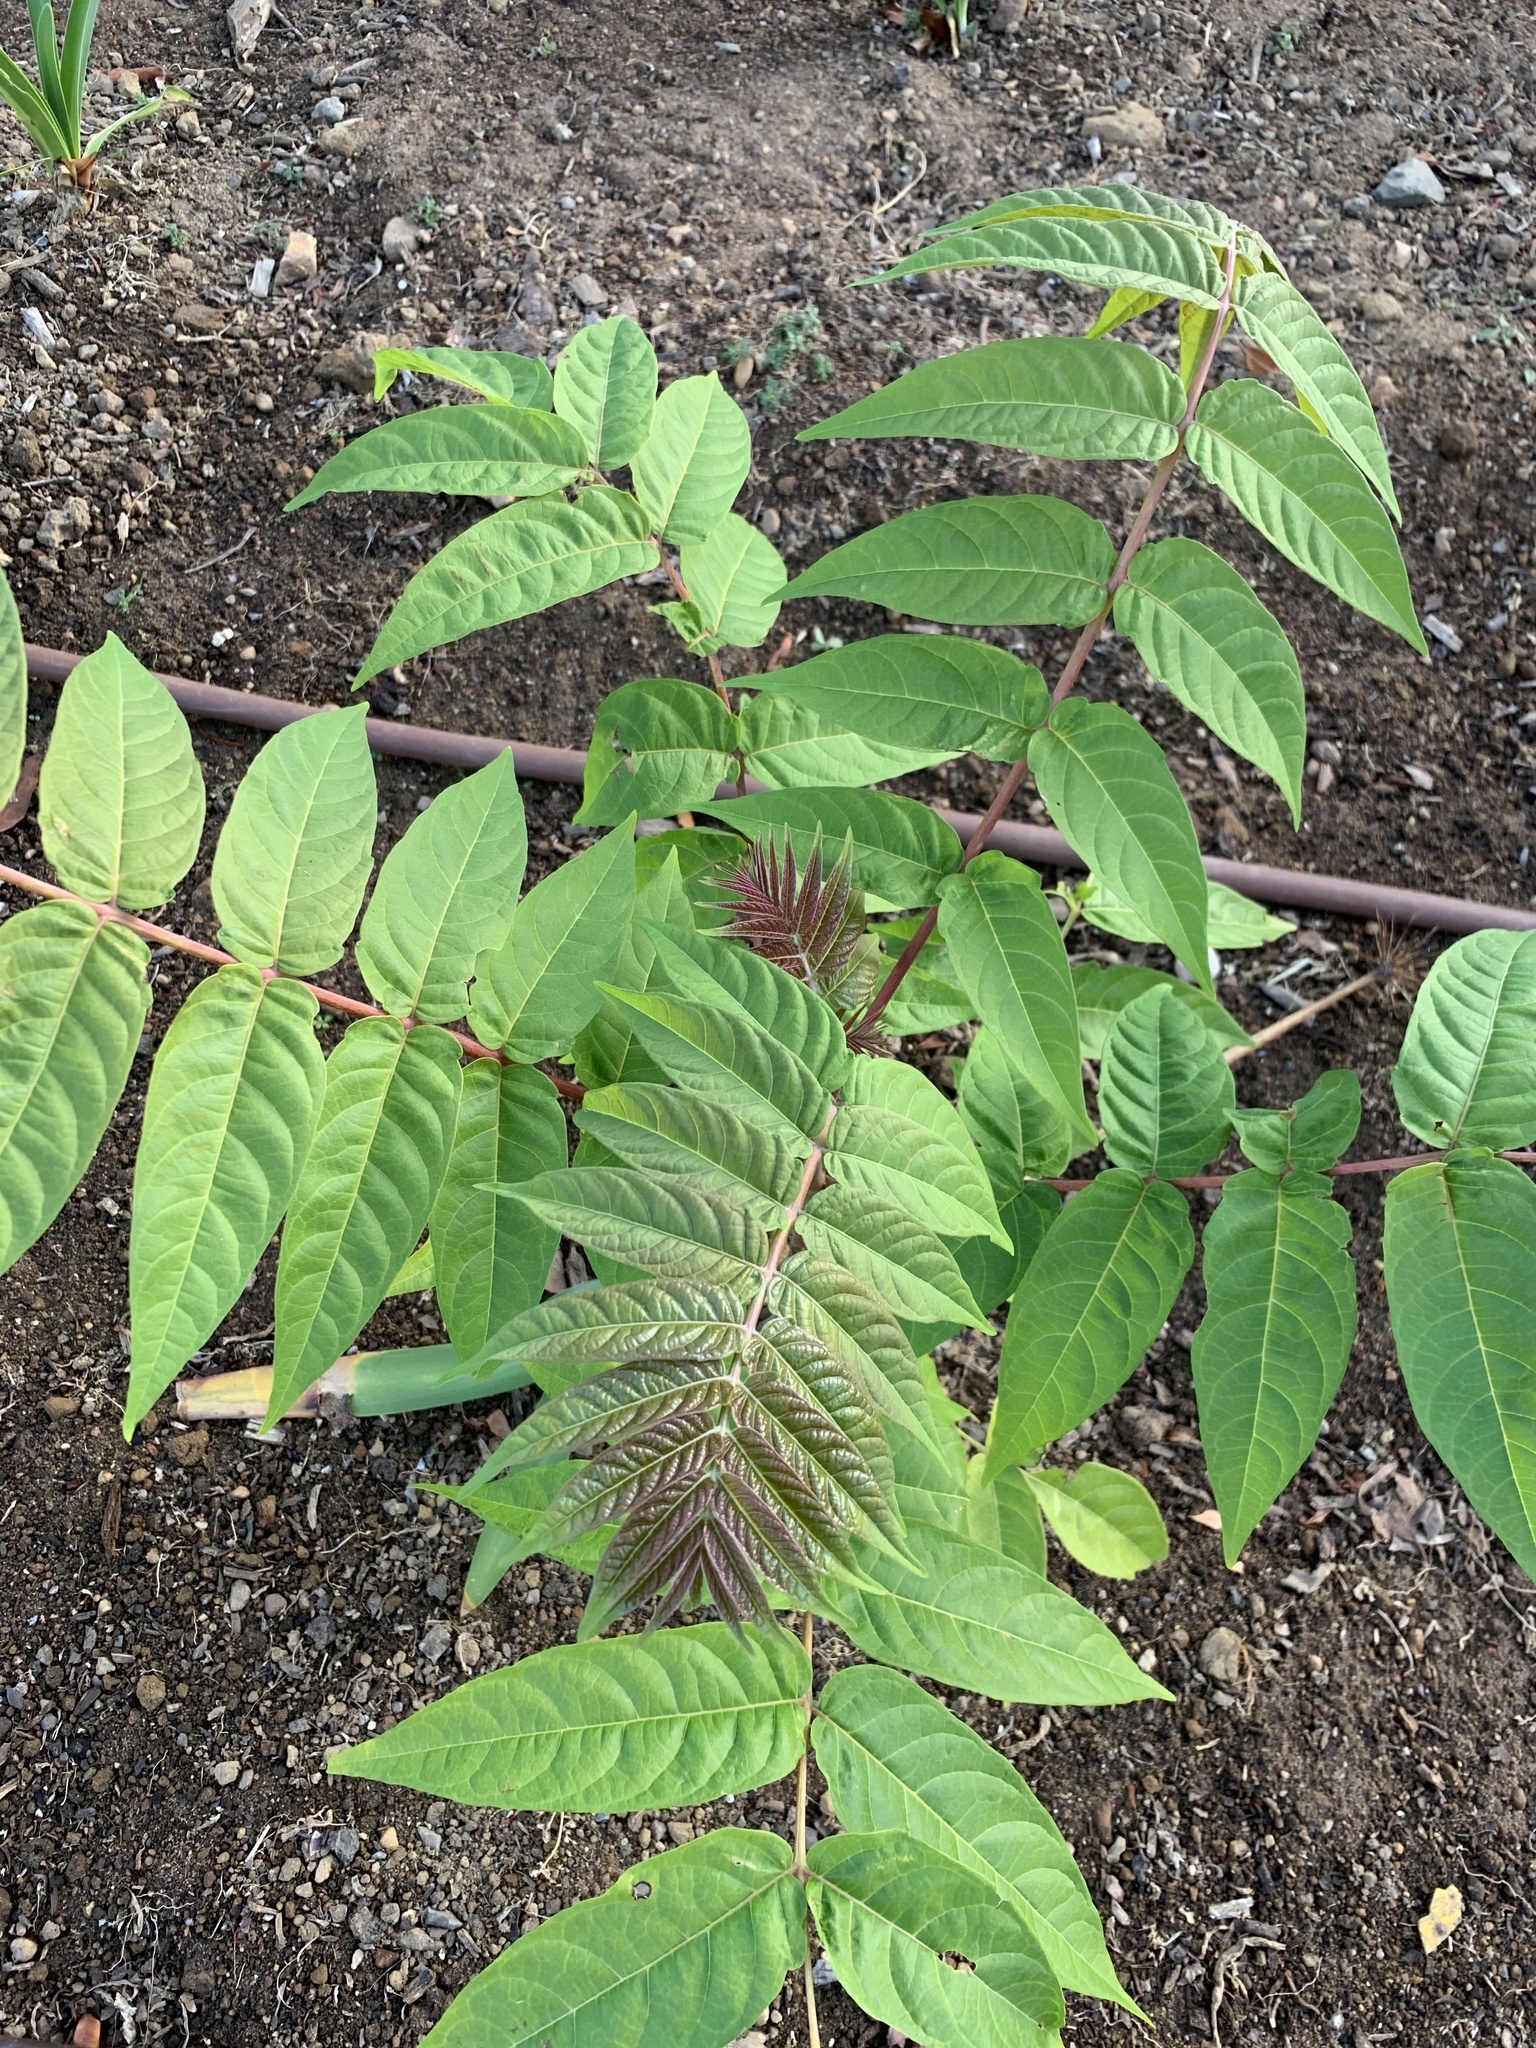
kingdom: Plantae
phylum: Tracheophyta
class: Magnoliopsida
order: Sapindales
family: Simaroubaceae
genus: Ailanthus
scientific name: Ailanthus altissima
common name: Tree-of-heaven
